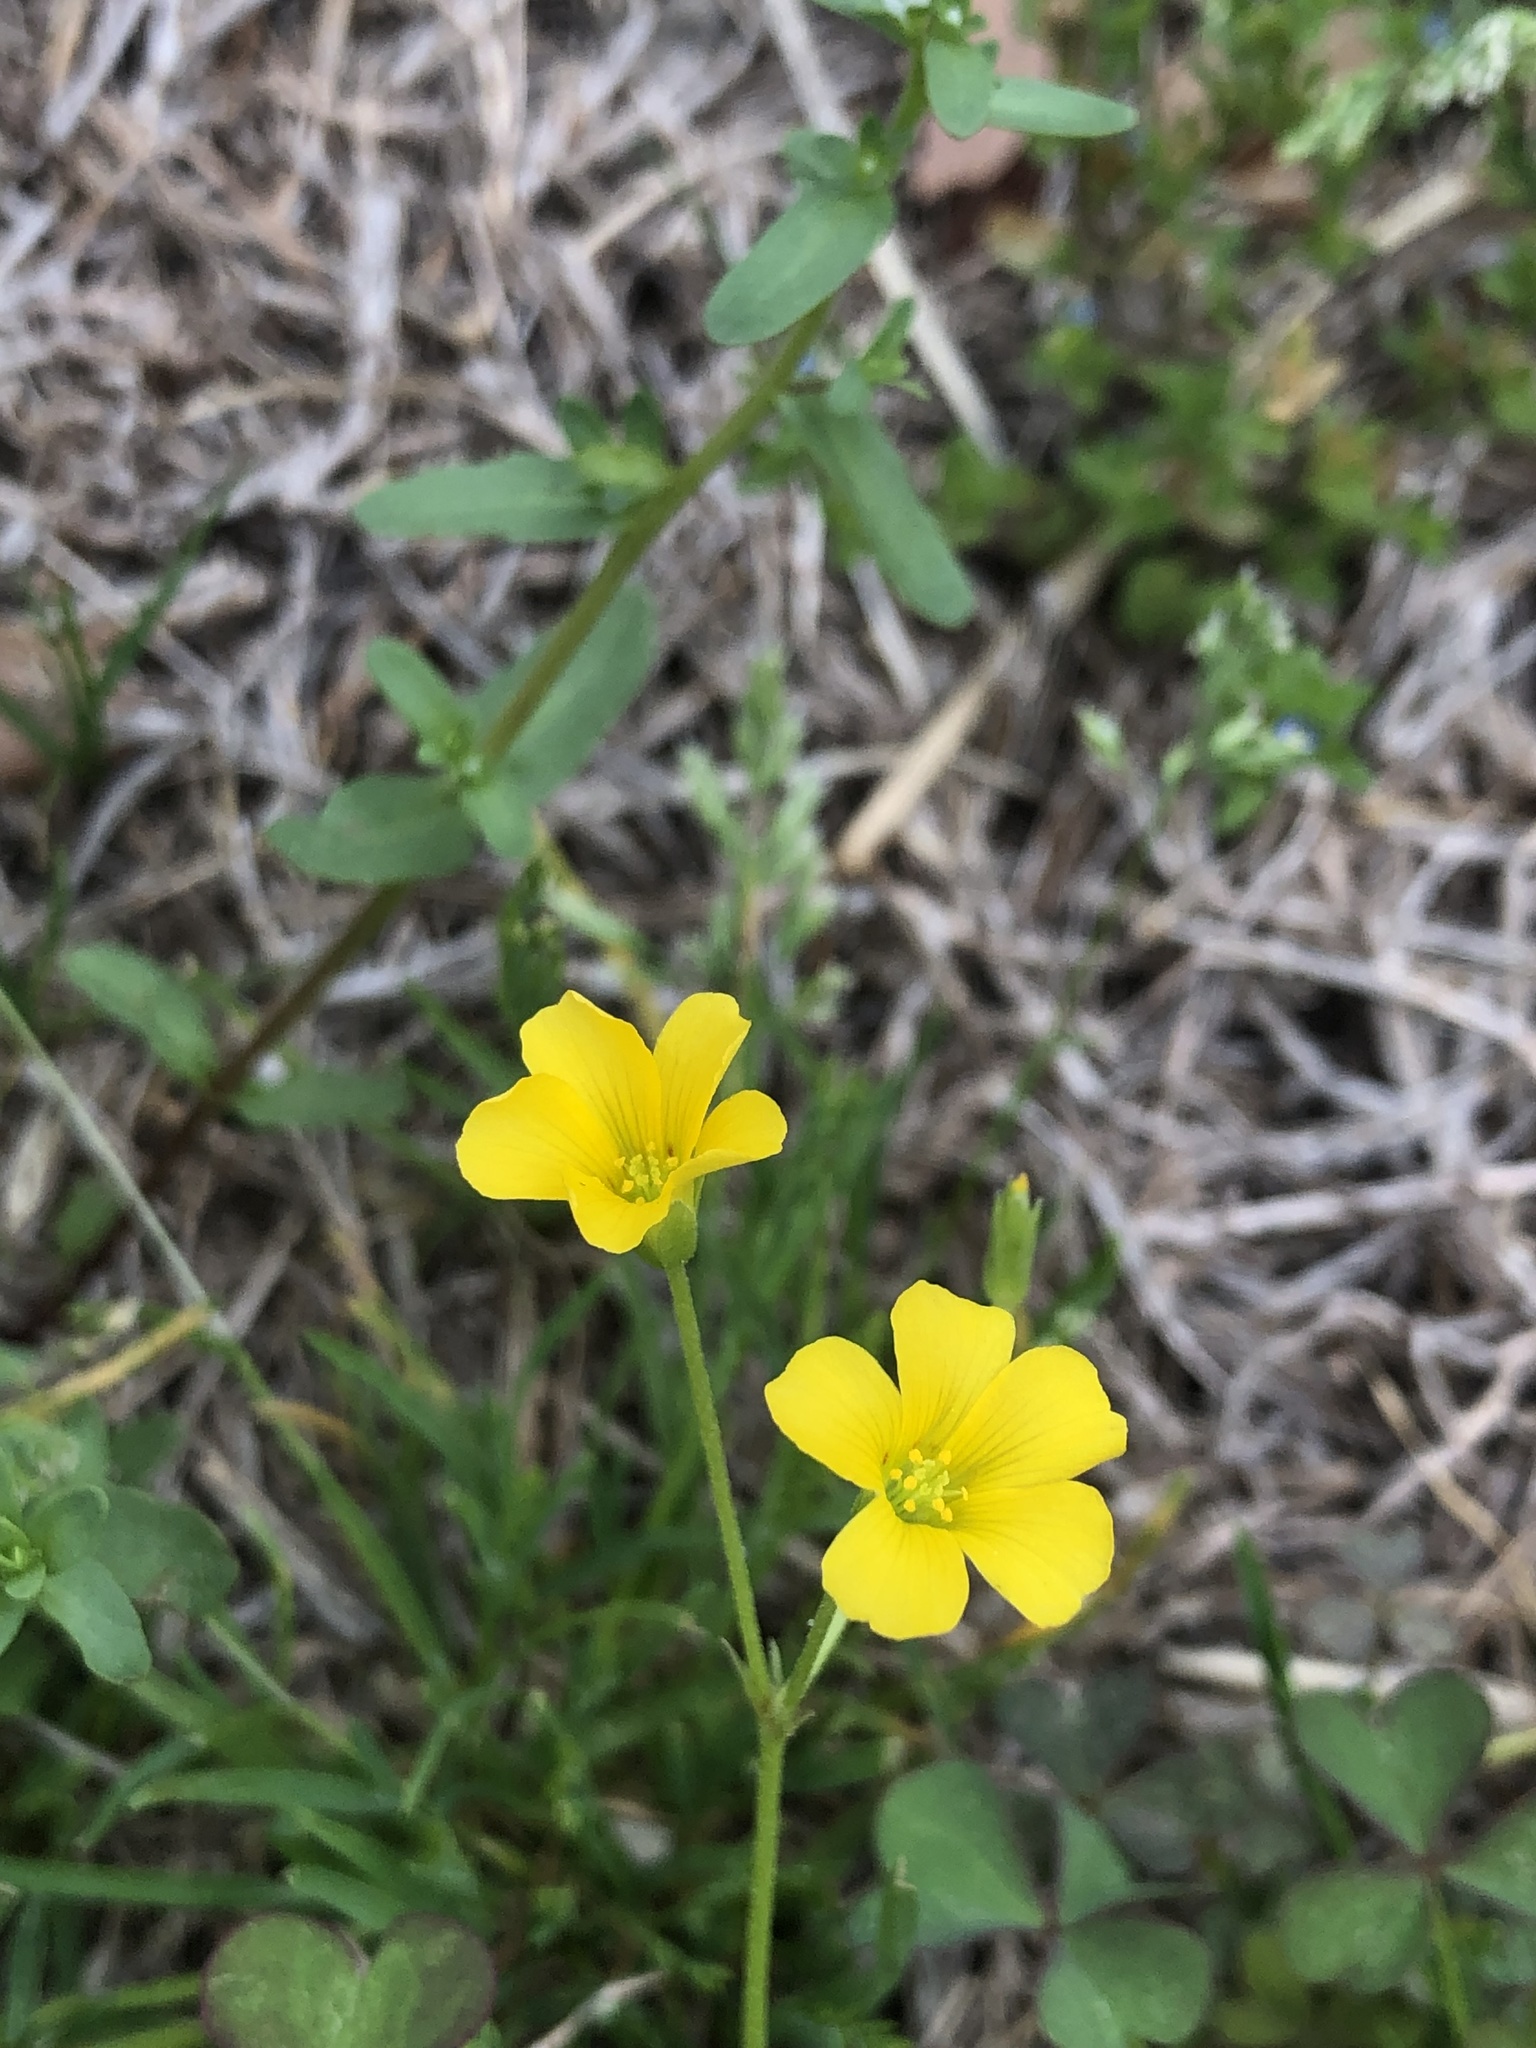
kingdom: Plantae
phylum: Tracheophyta
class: Magnoliopsida
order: Oxalidales
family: Oxalidaceae
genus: Oxalis
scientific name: Oxalis dillenii
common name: Sussex yellow-sorrel
